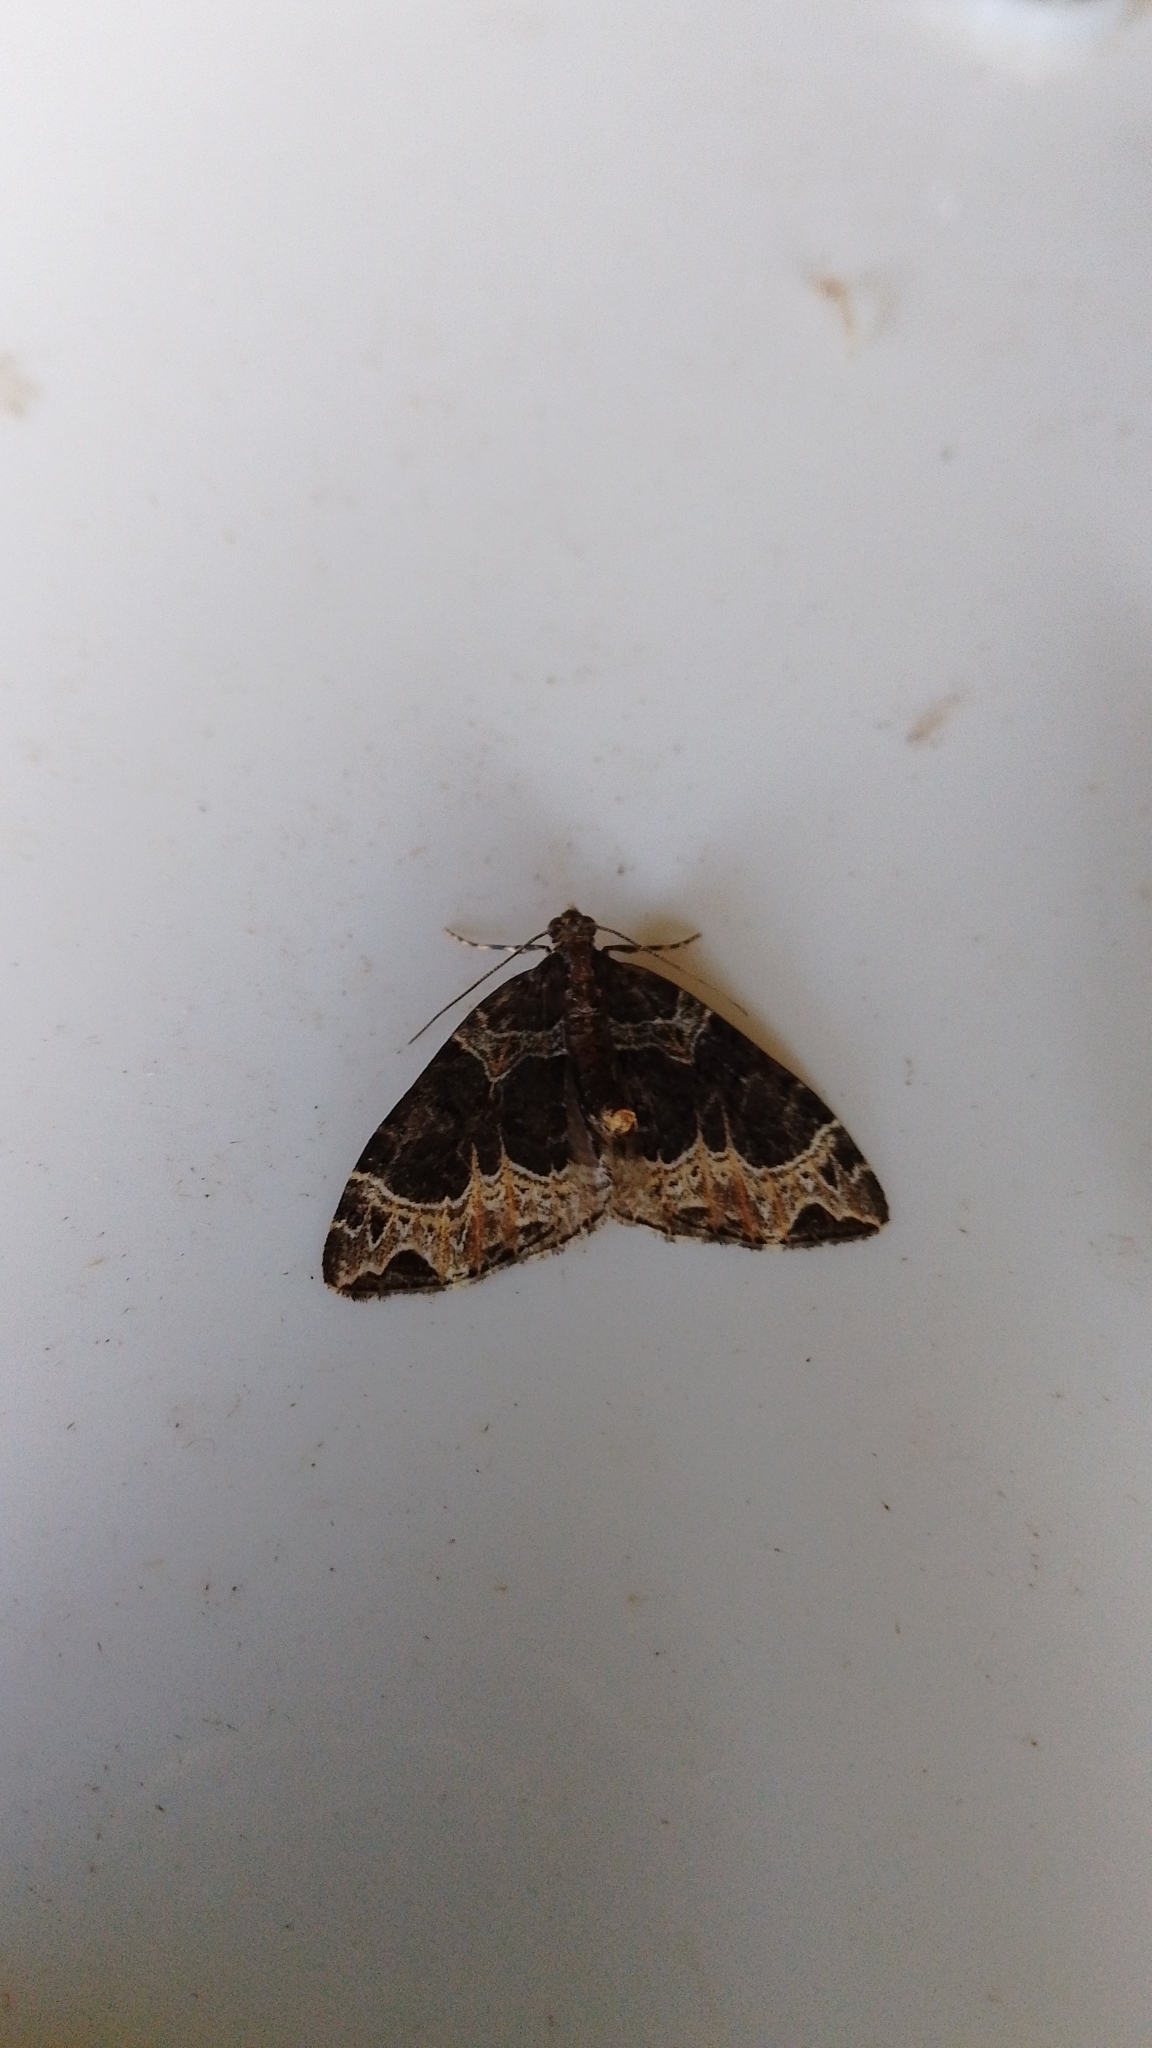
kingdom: Animalia
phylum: Arthropoda
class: Insecta
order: Lepidoptera
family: Geometridae
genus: Ecliptopera
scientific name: Ecliptopera silaceata
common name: Small phoenix
